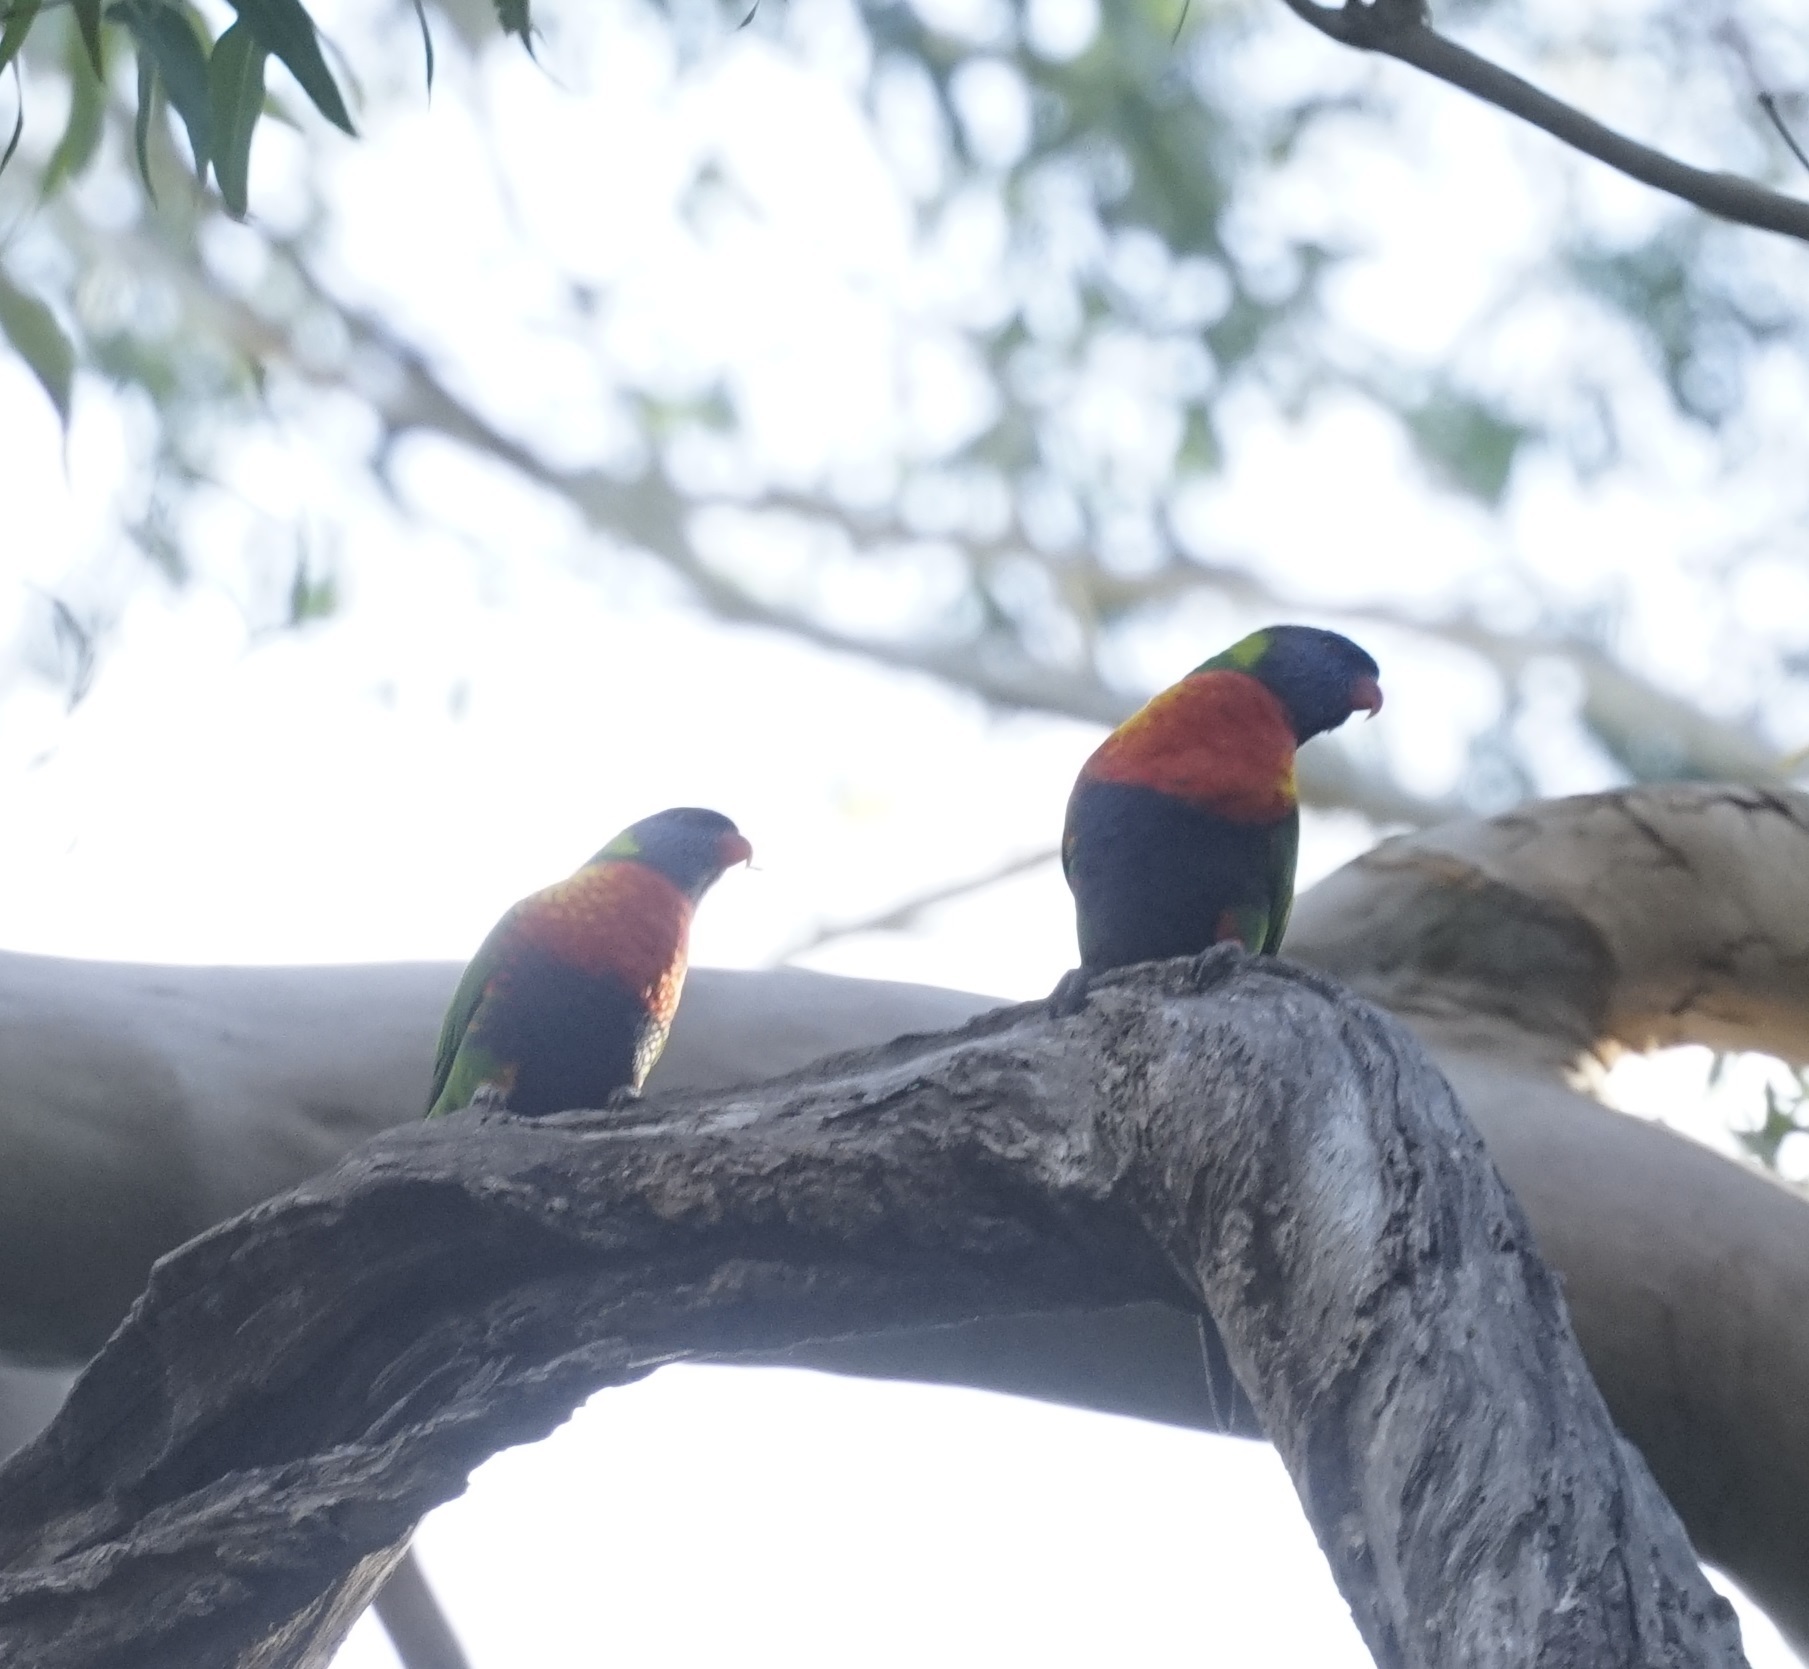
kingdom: Animalia
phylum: Chordata
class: Aves
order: Psittaciformes
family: Psittacidae
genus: Trichoglossus
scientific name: Trichoglossus haematodus
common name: Coconut lorikeet
